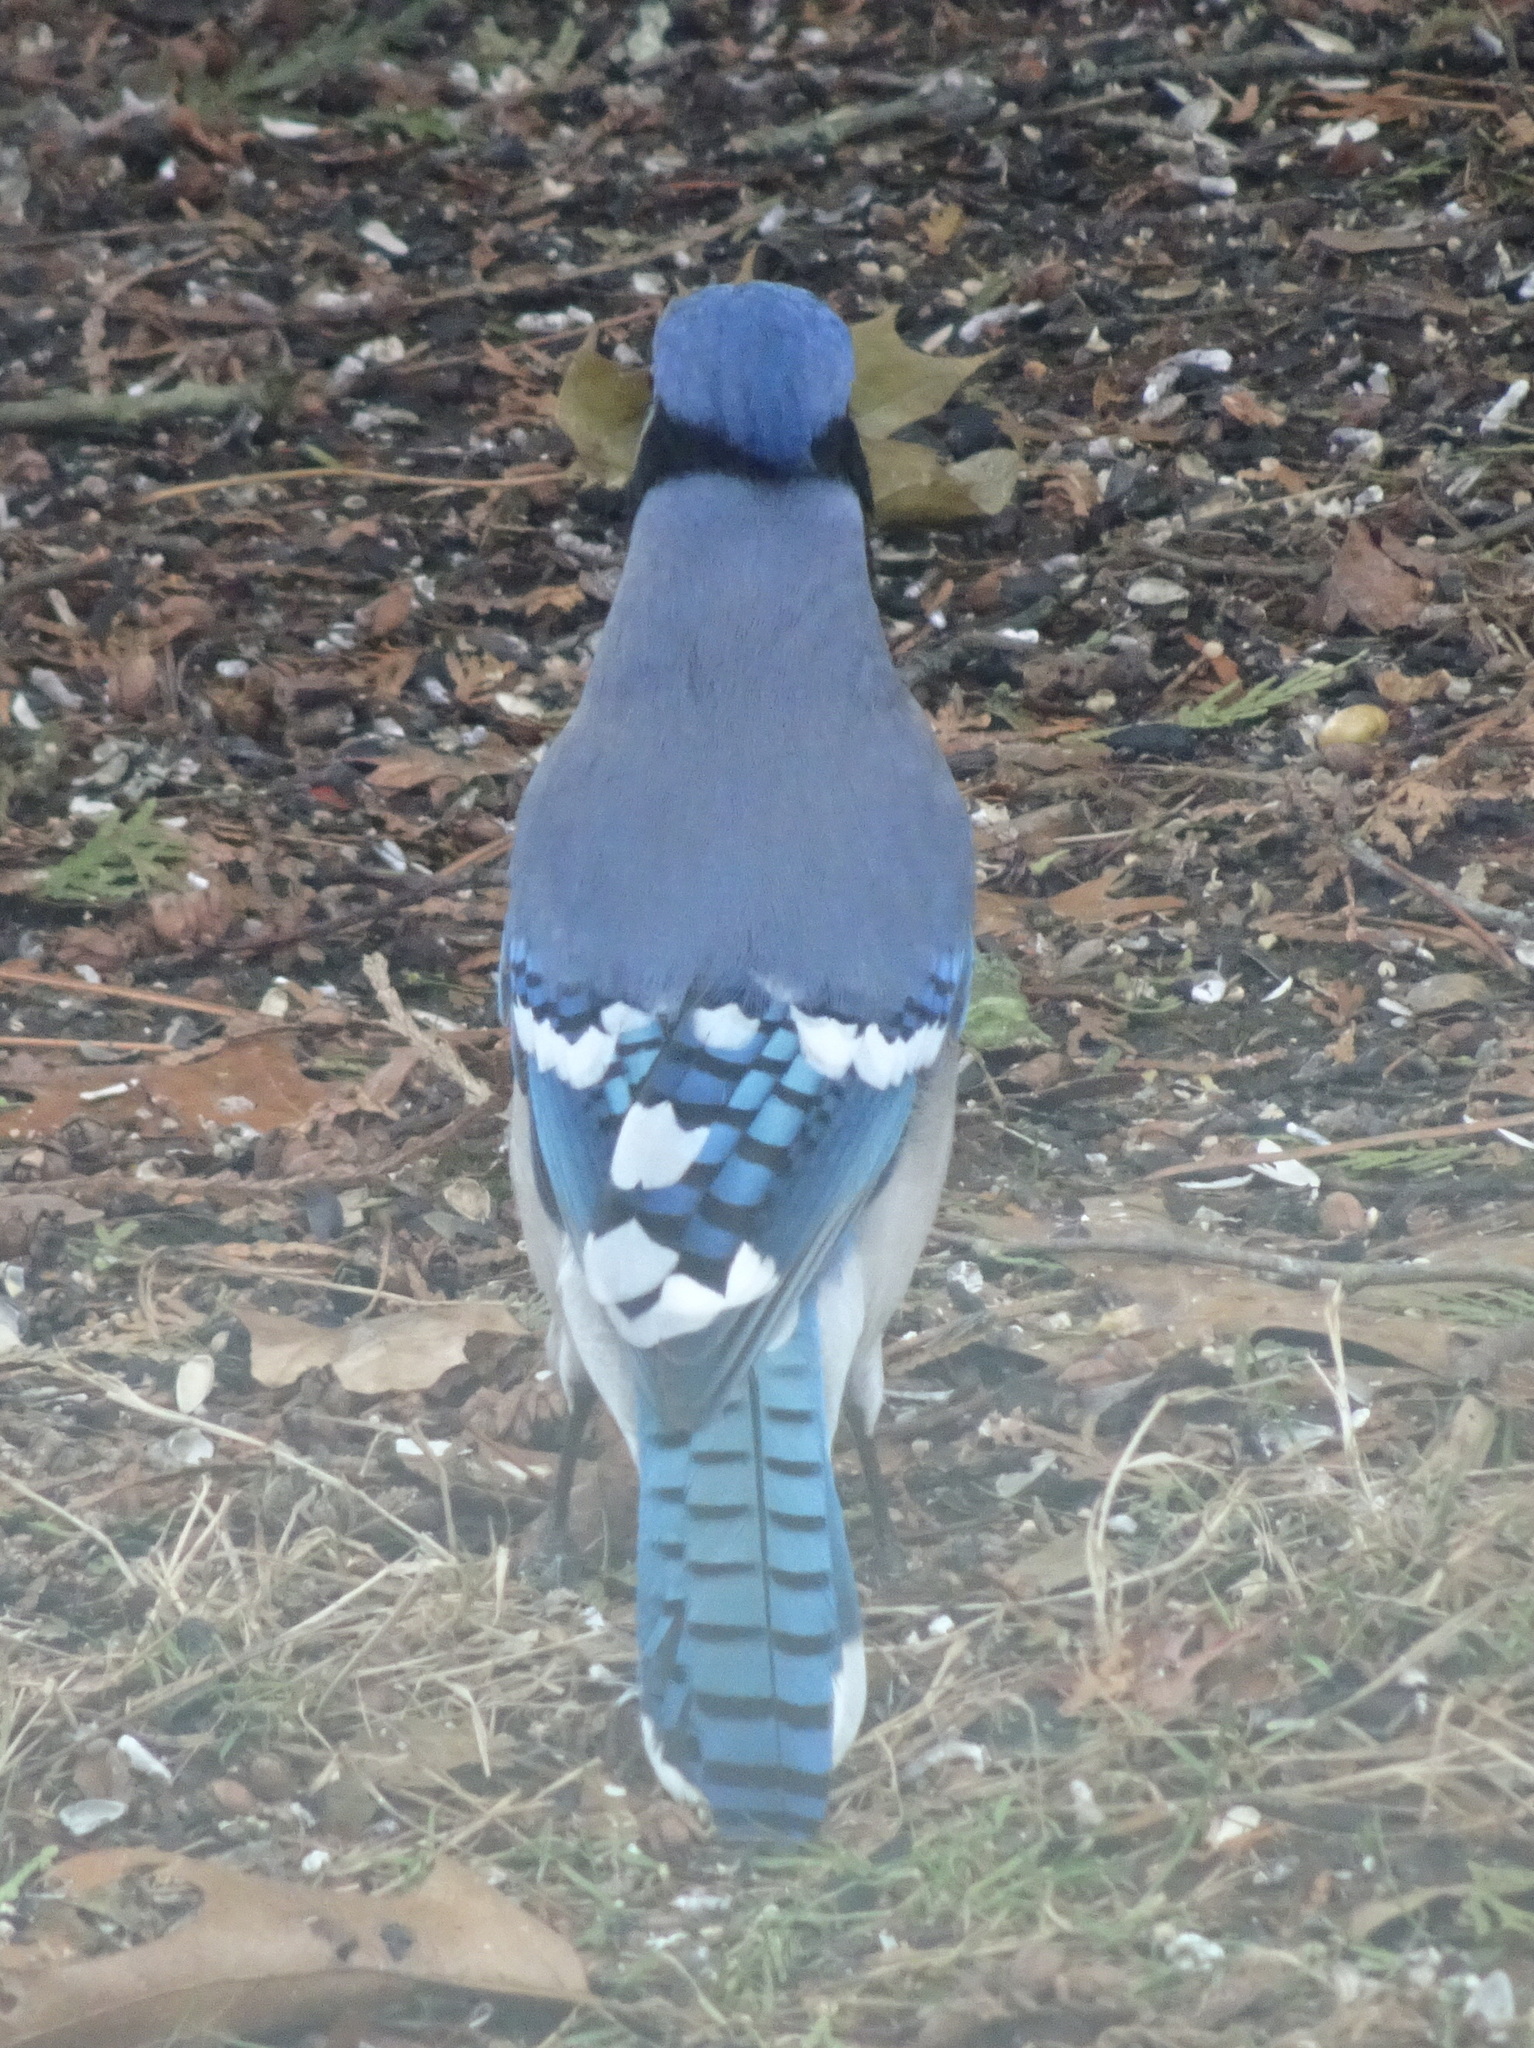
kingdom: Animalia
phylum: Chordata
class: Aves
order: Passeriformes
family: Corvidae
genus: Cyanocitta
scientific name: Cyanocitta cristata
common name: Blue jay
